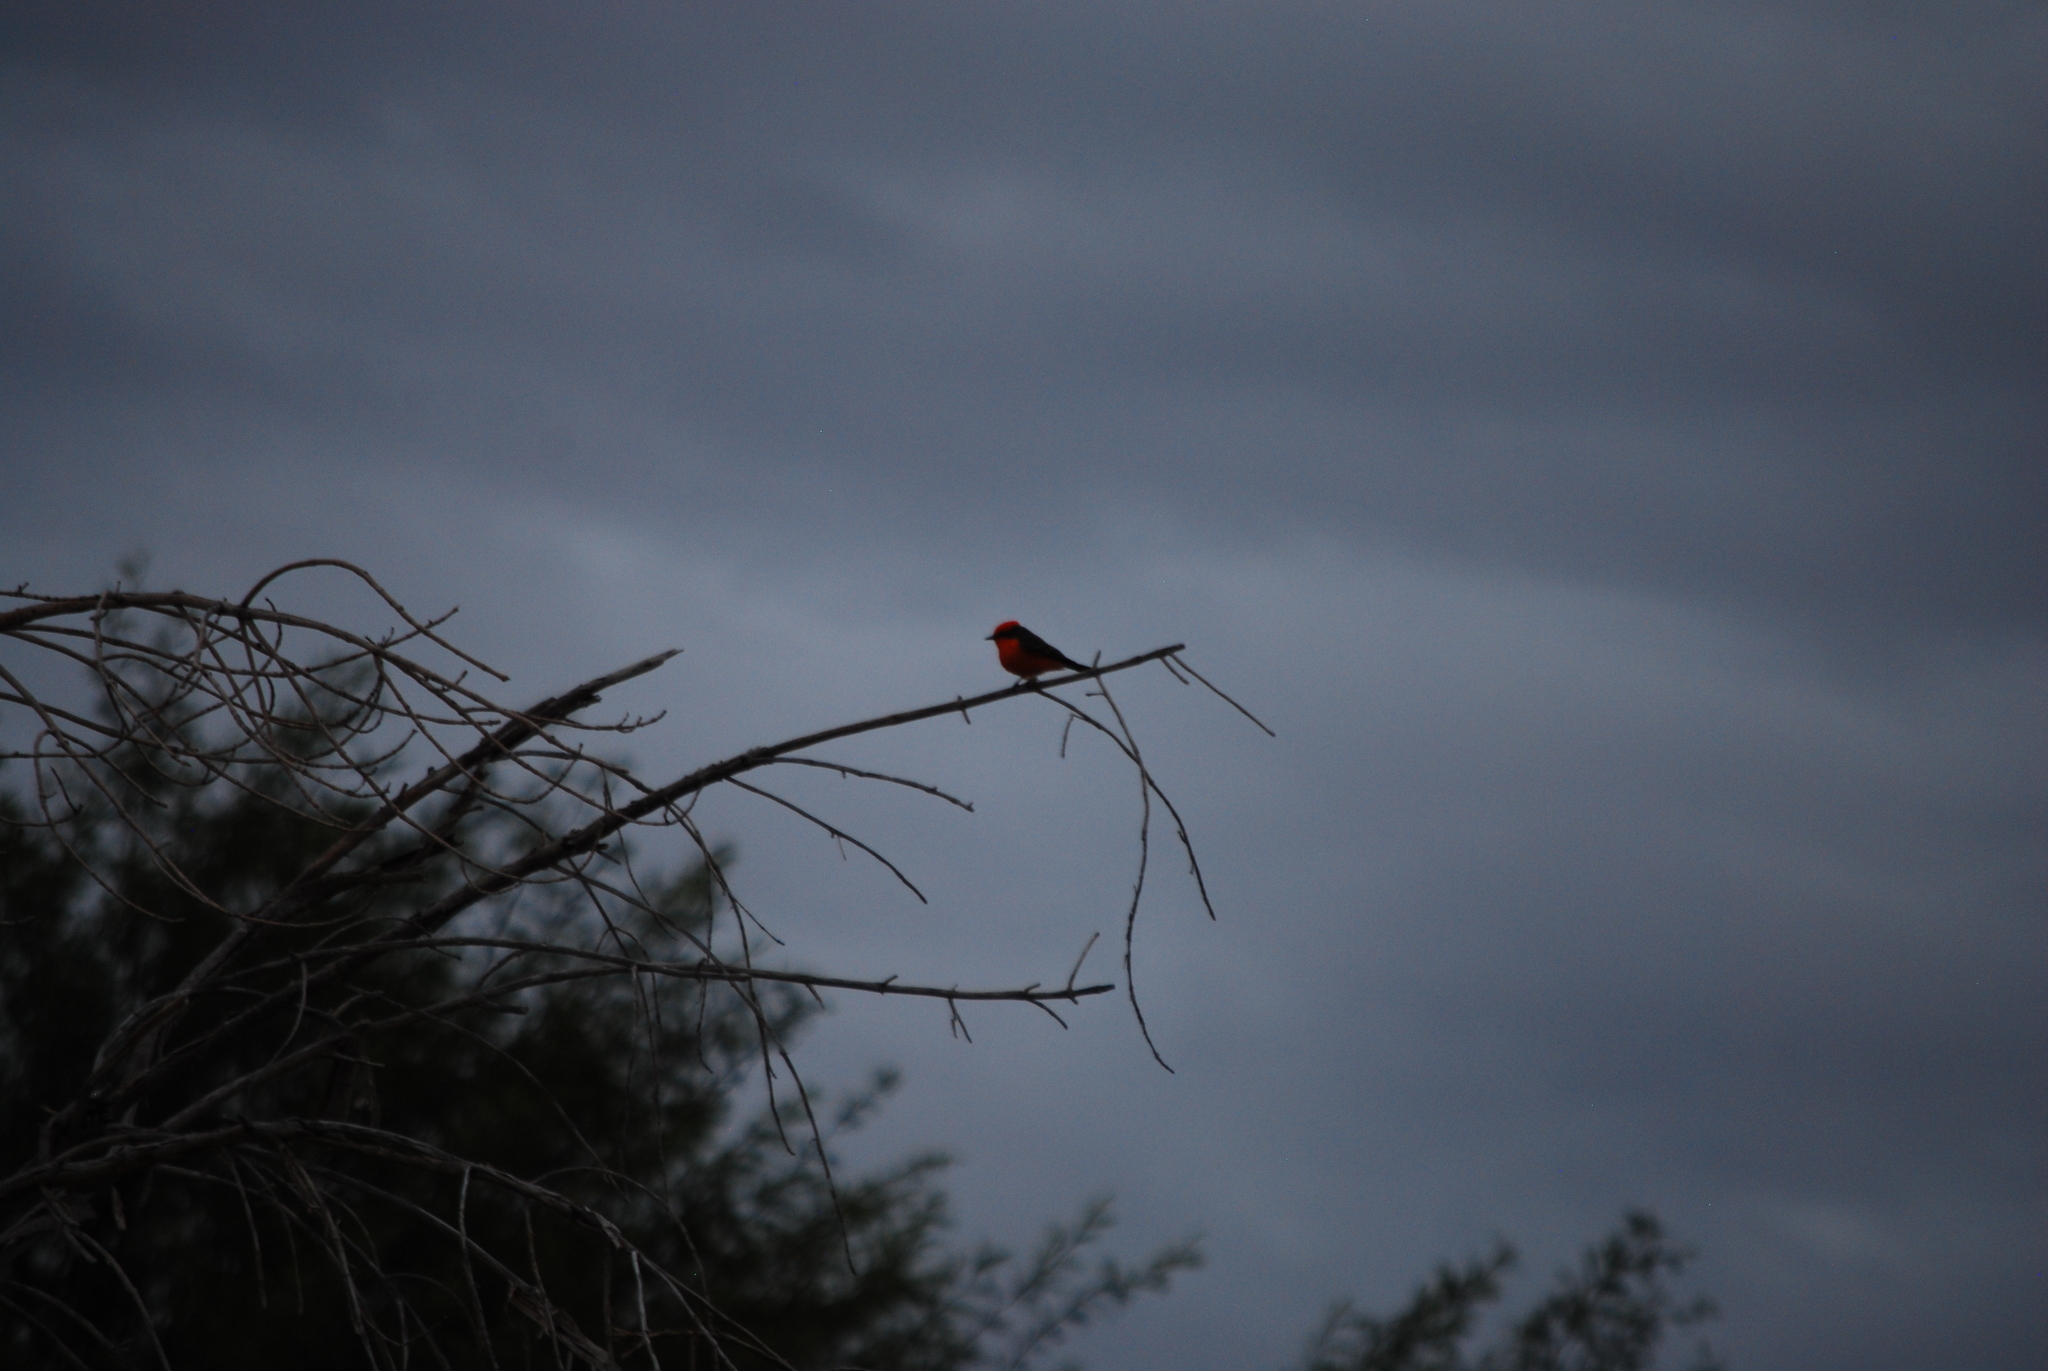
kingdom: Animalia
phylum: Chordata
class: Aves
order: Passeriformes
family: Tyrannidae
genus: Pyrocephalus
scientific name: Pyrocephalus rubinus
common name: Vermilion flycatcher
